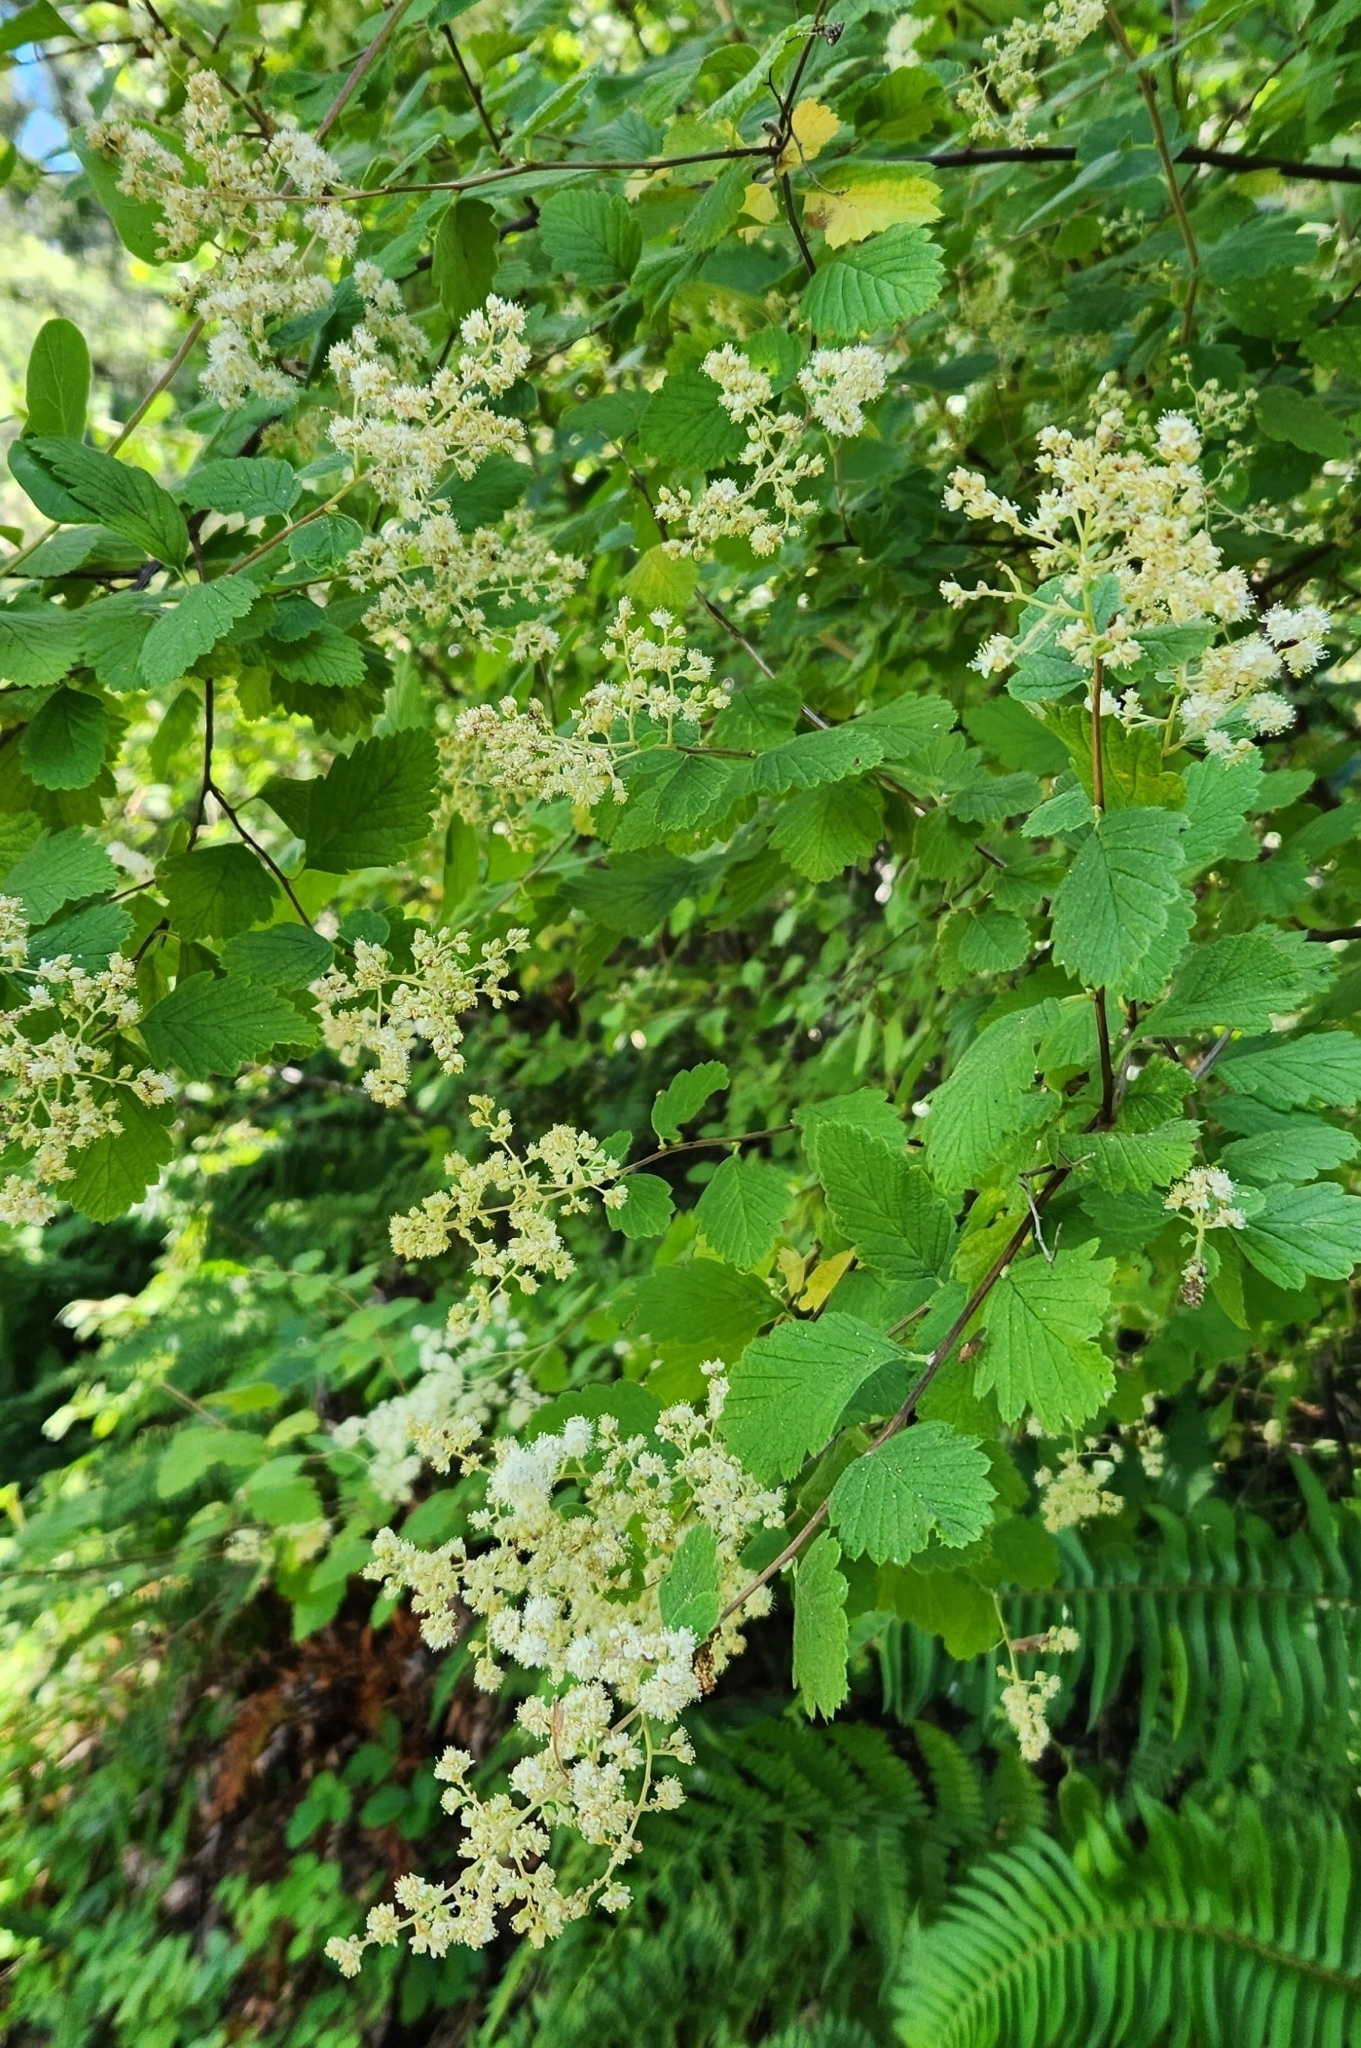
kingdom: Plantae
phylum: Tracheophyta
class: Magnoliopsida
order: Rosales
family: Rosaceae
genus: Holodiscus
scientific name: Holodiscus discolor
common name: Oceanspray
